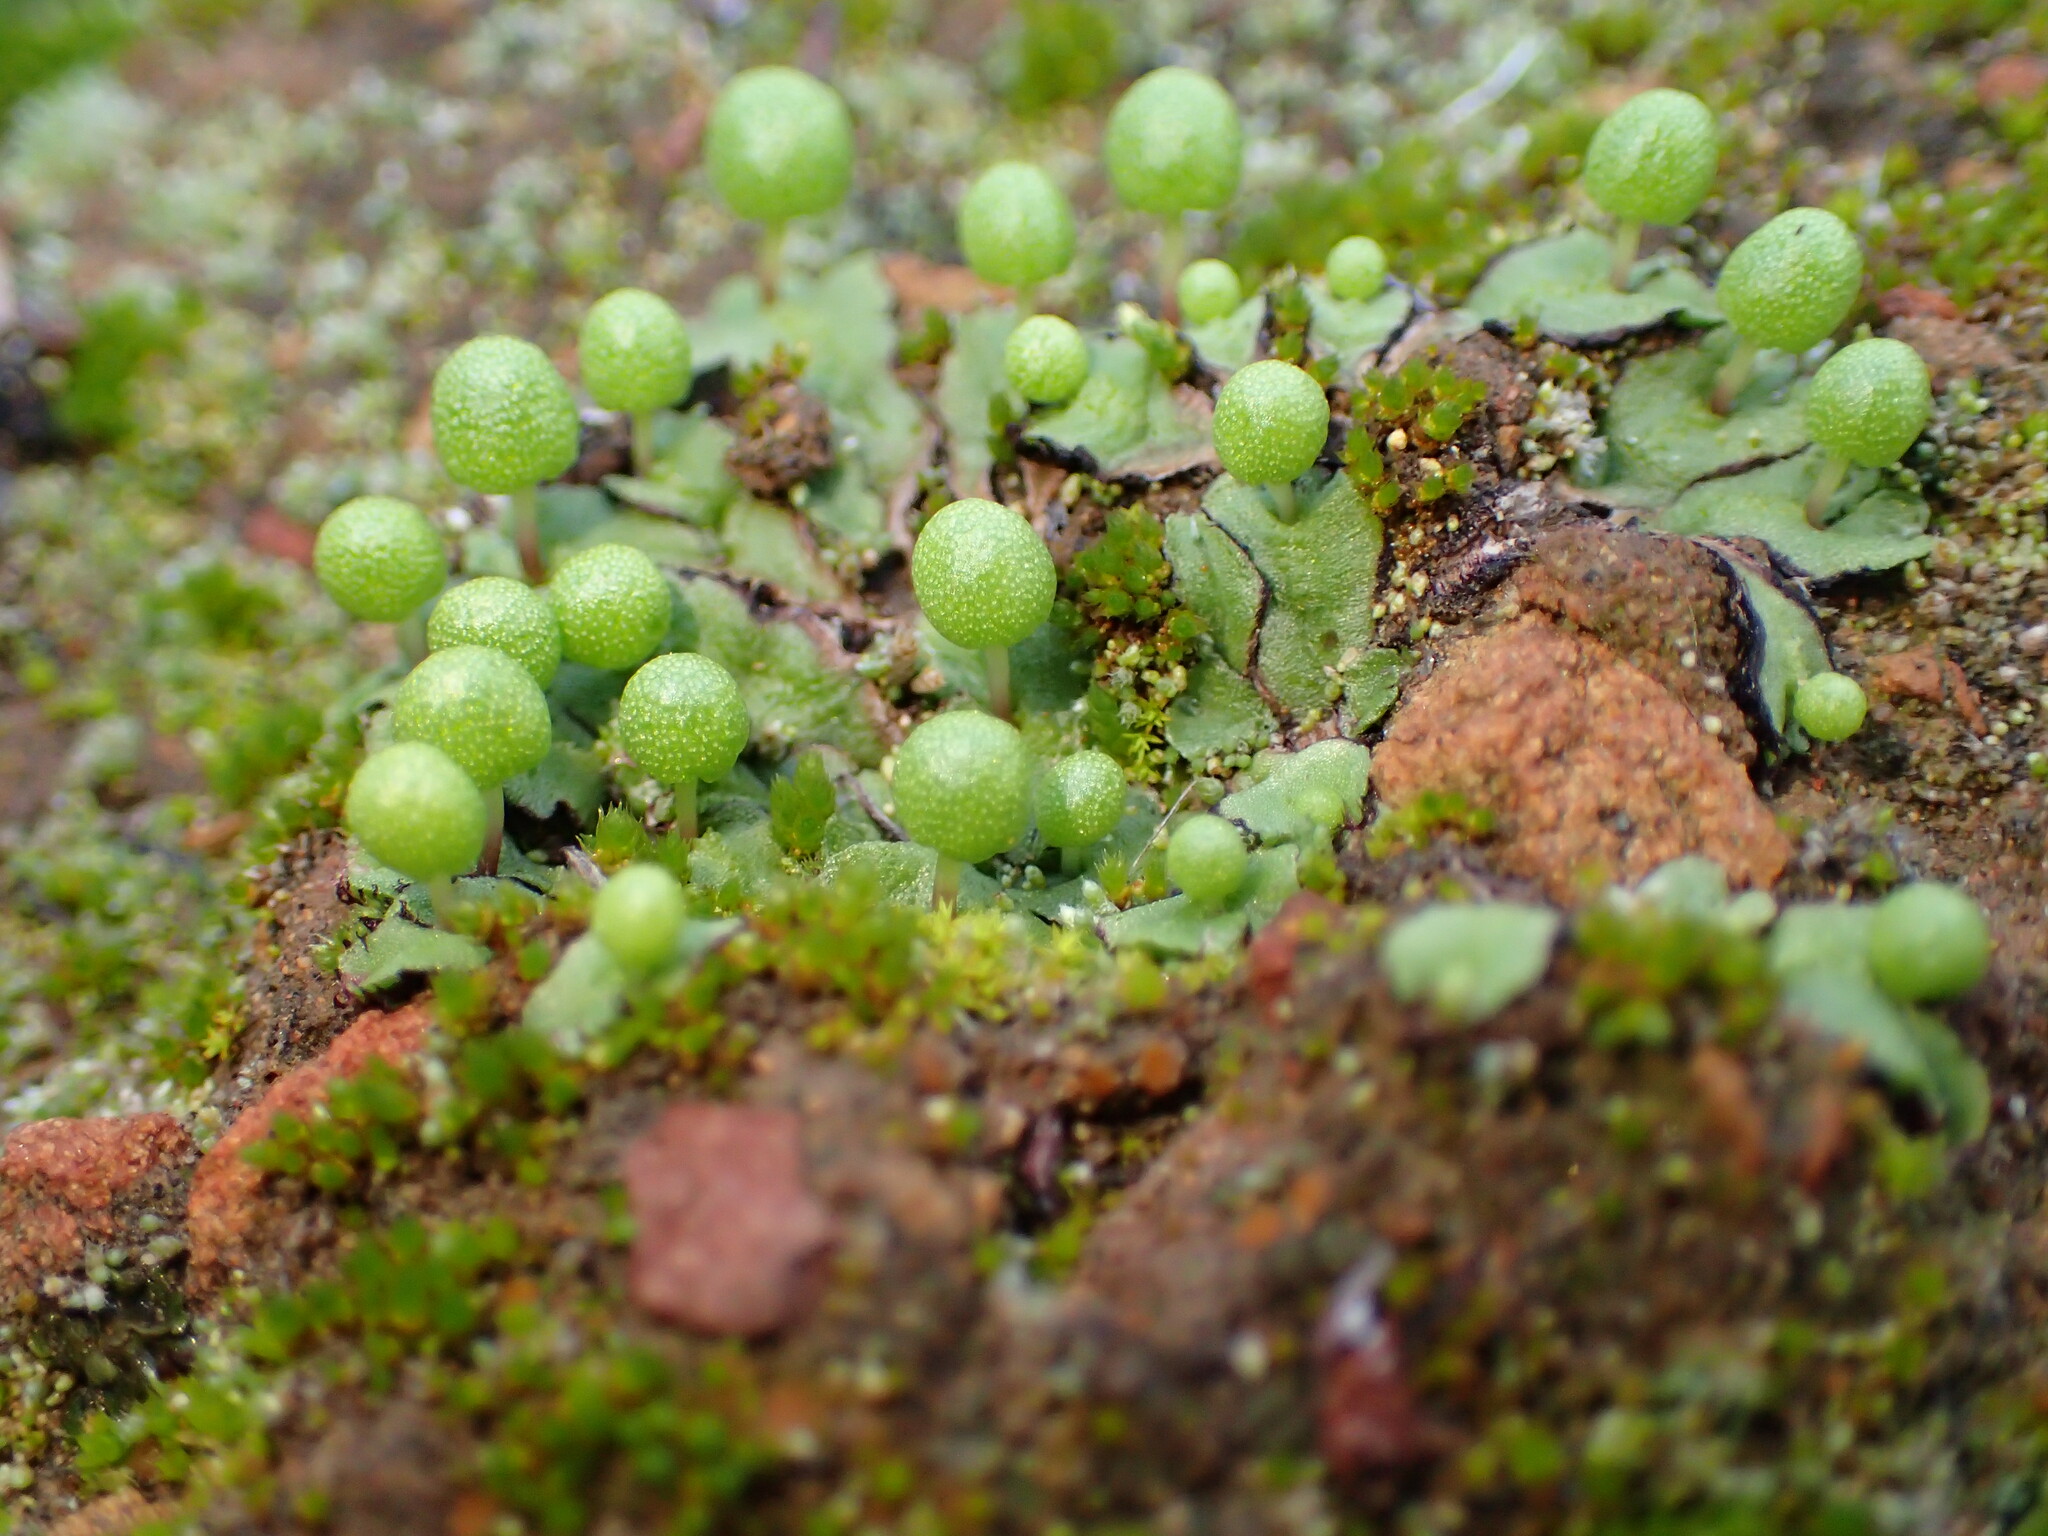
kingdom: Plantae
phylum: Marchantiophyta
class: Marchantiopsida
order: Marchantiales
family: Aytoniaceae
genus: Asterella
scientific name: Asterella palmeri
